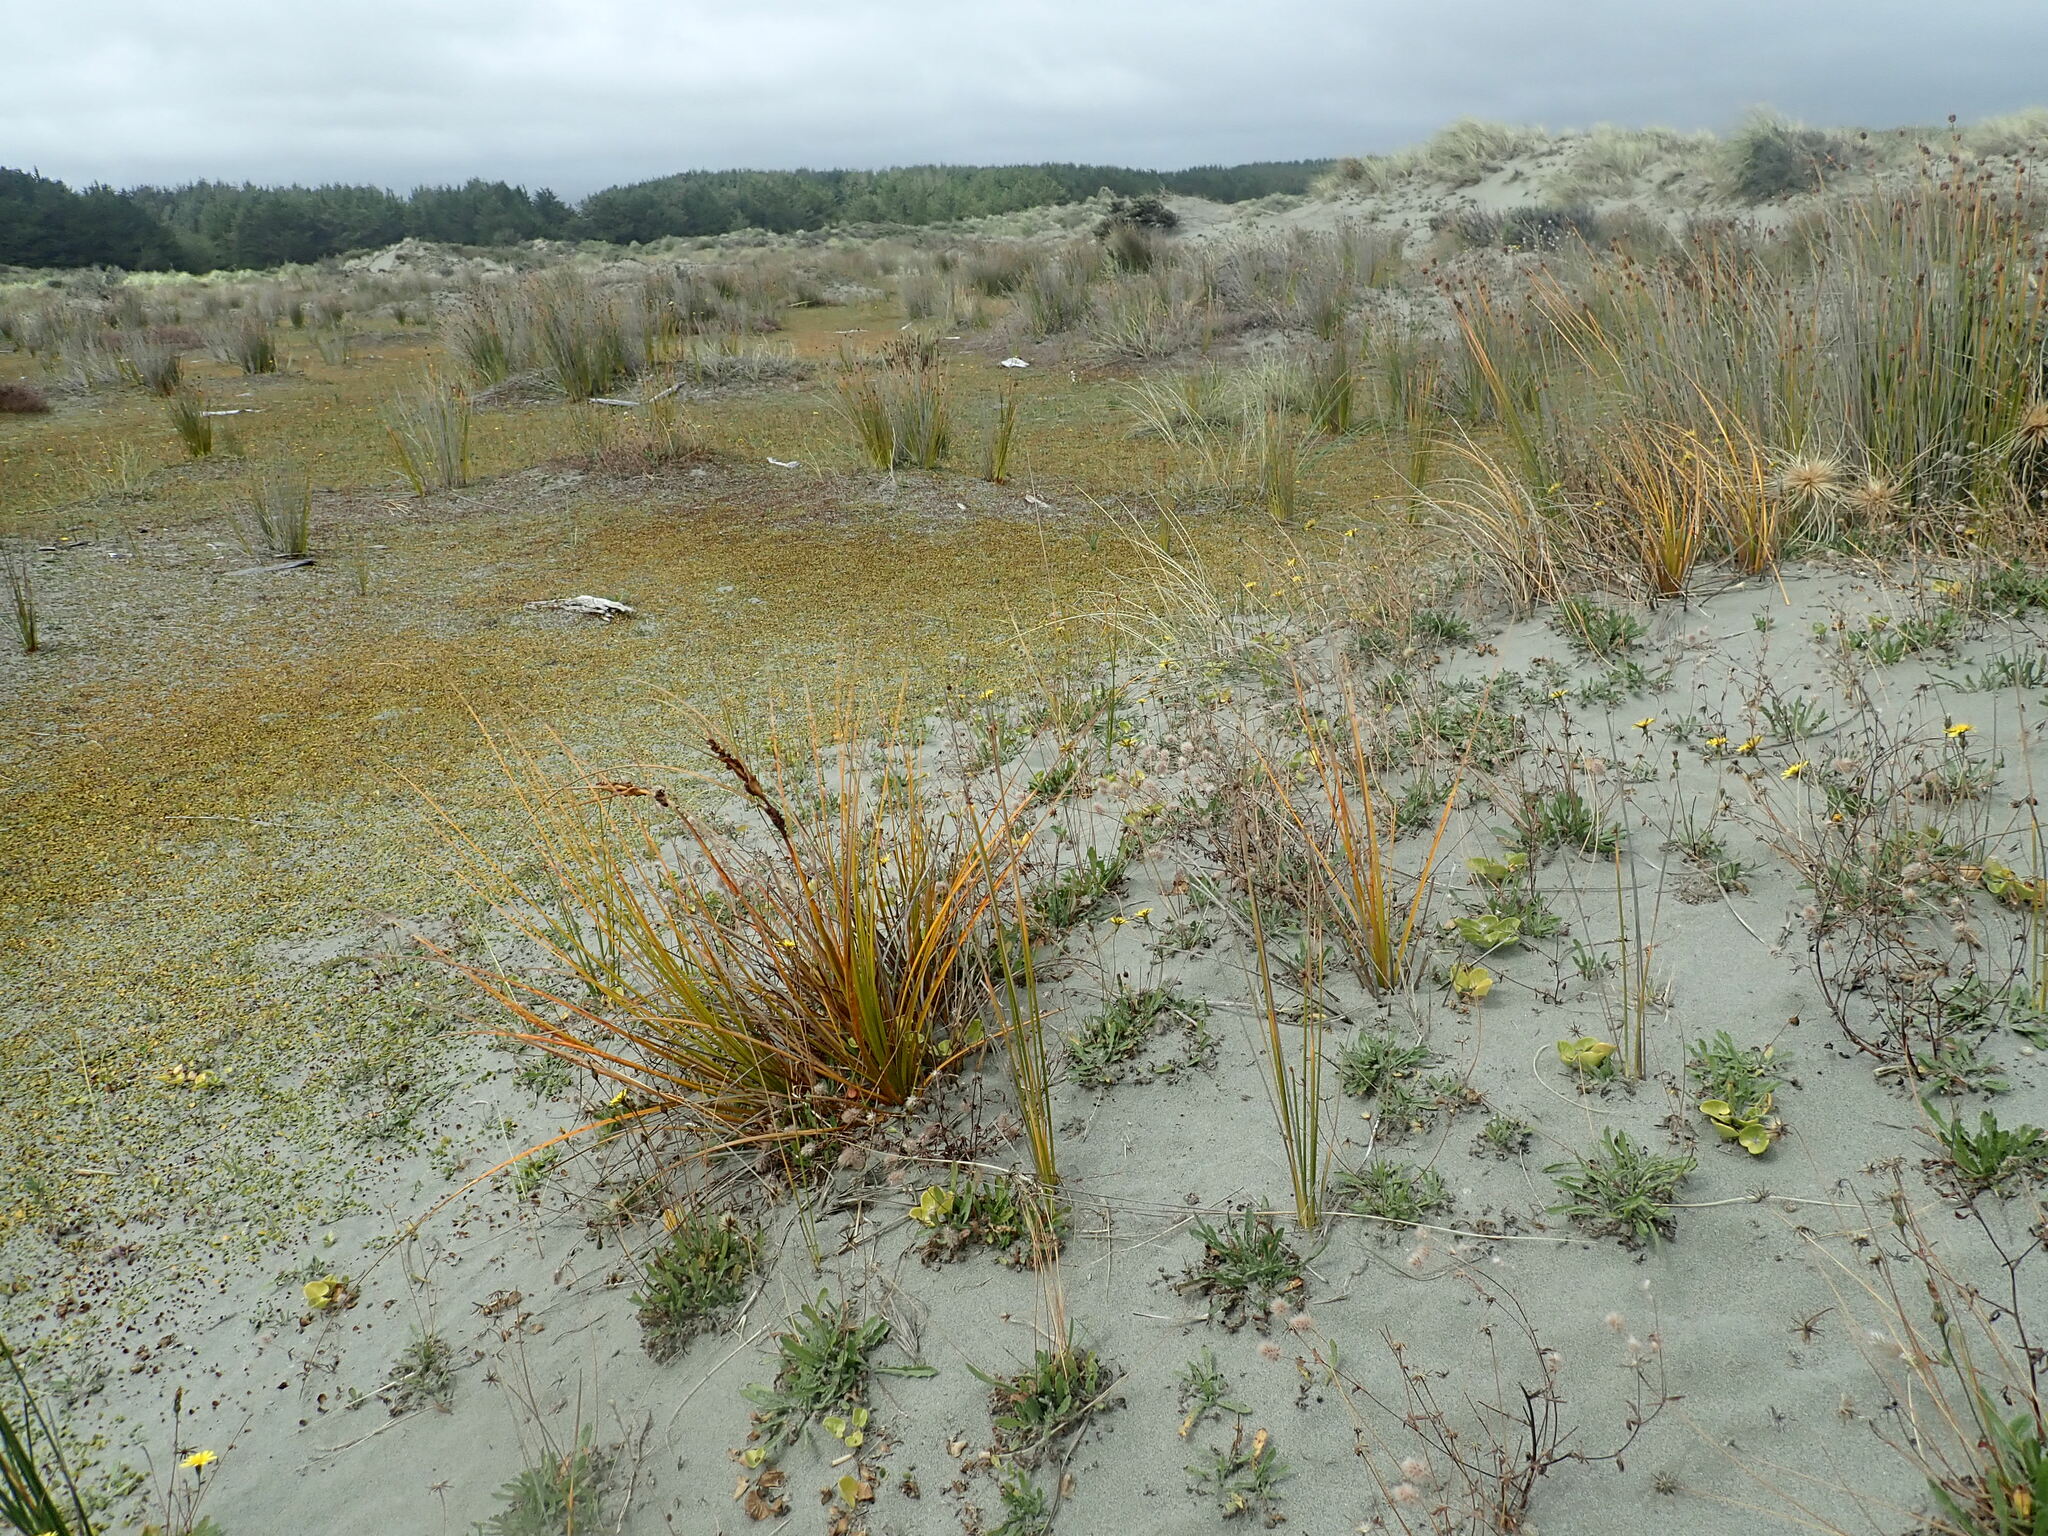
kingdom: Plantae
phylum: Tracheophyta
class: Liliopsida
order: Poales
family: Cyperaceae
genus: Ficinia
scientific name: Ficinia spiralis
